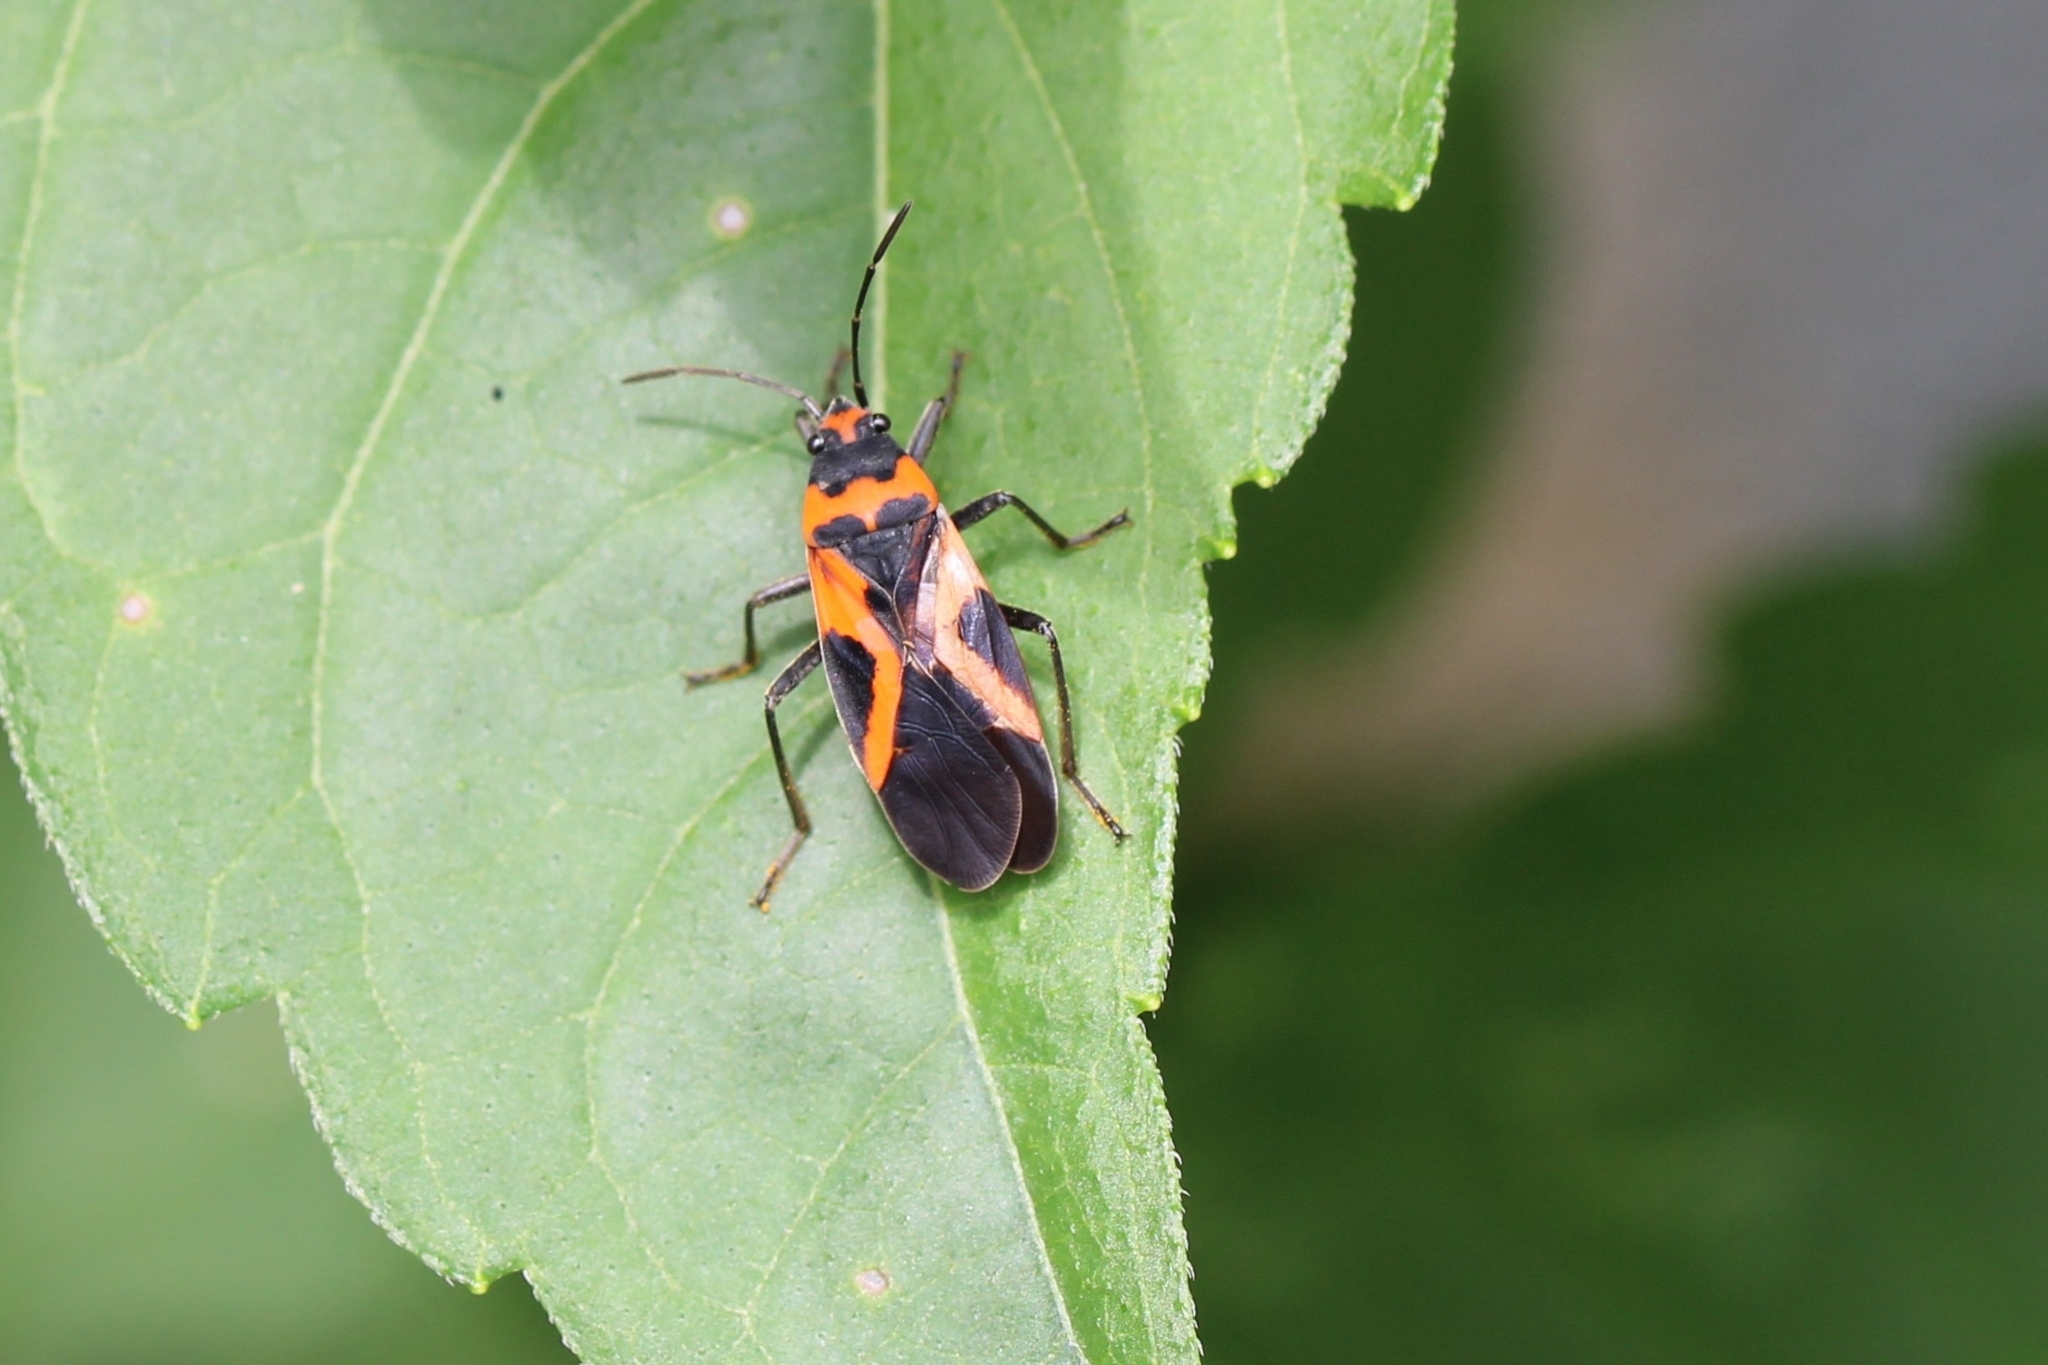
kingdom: Animalia
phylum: Arthropoda
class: Insecta
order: Hemiptera
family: Lygaeidae
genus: Lygaeus
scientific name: Lygaeus turcicus
